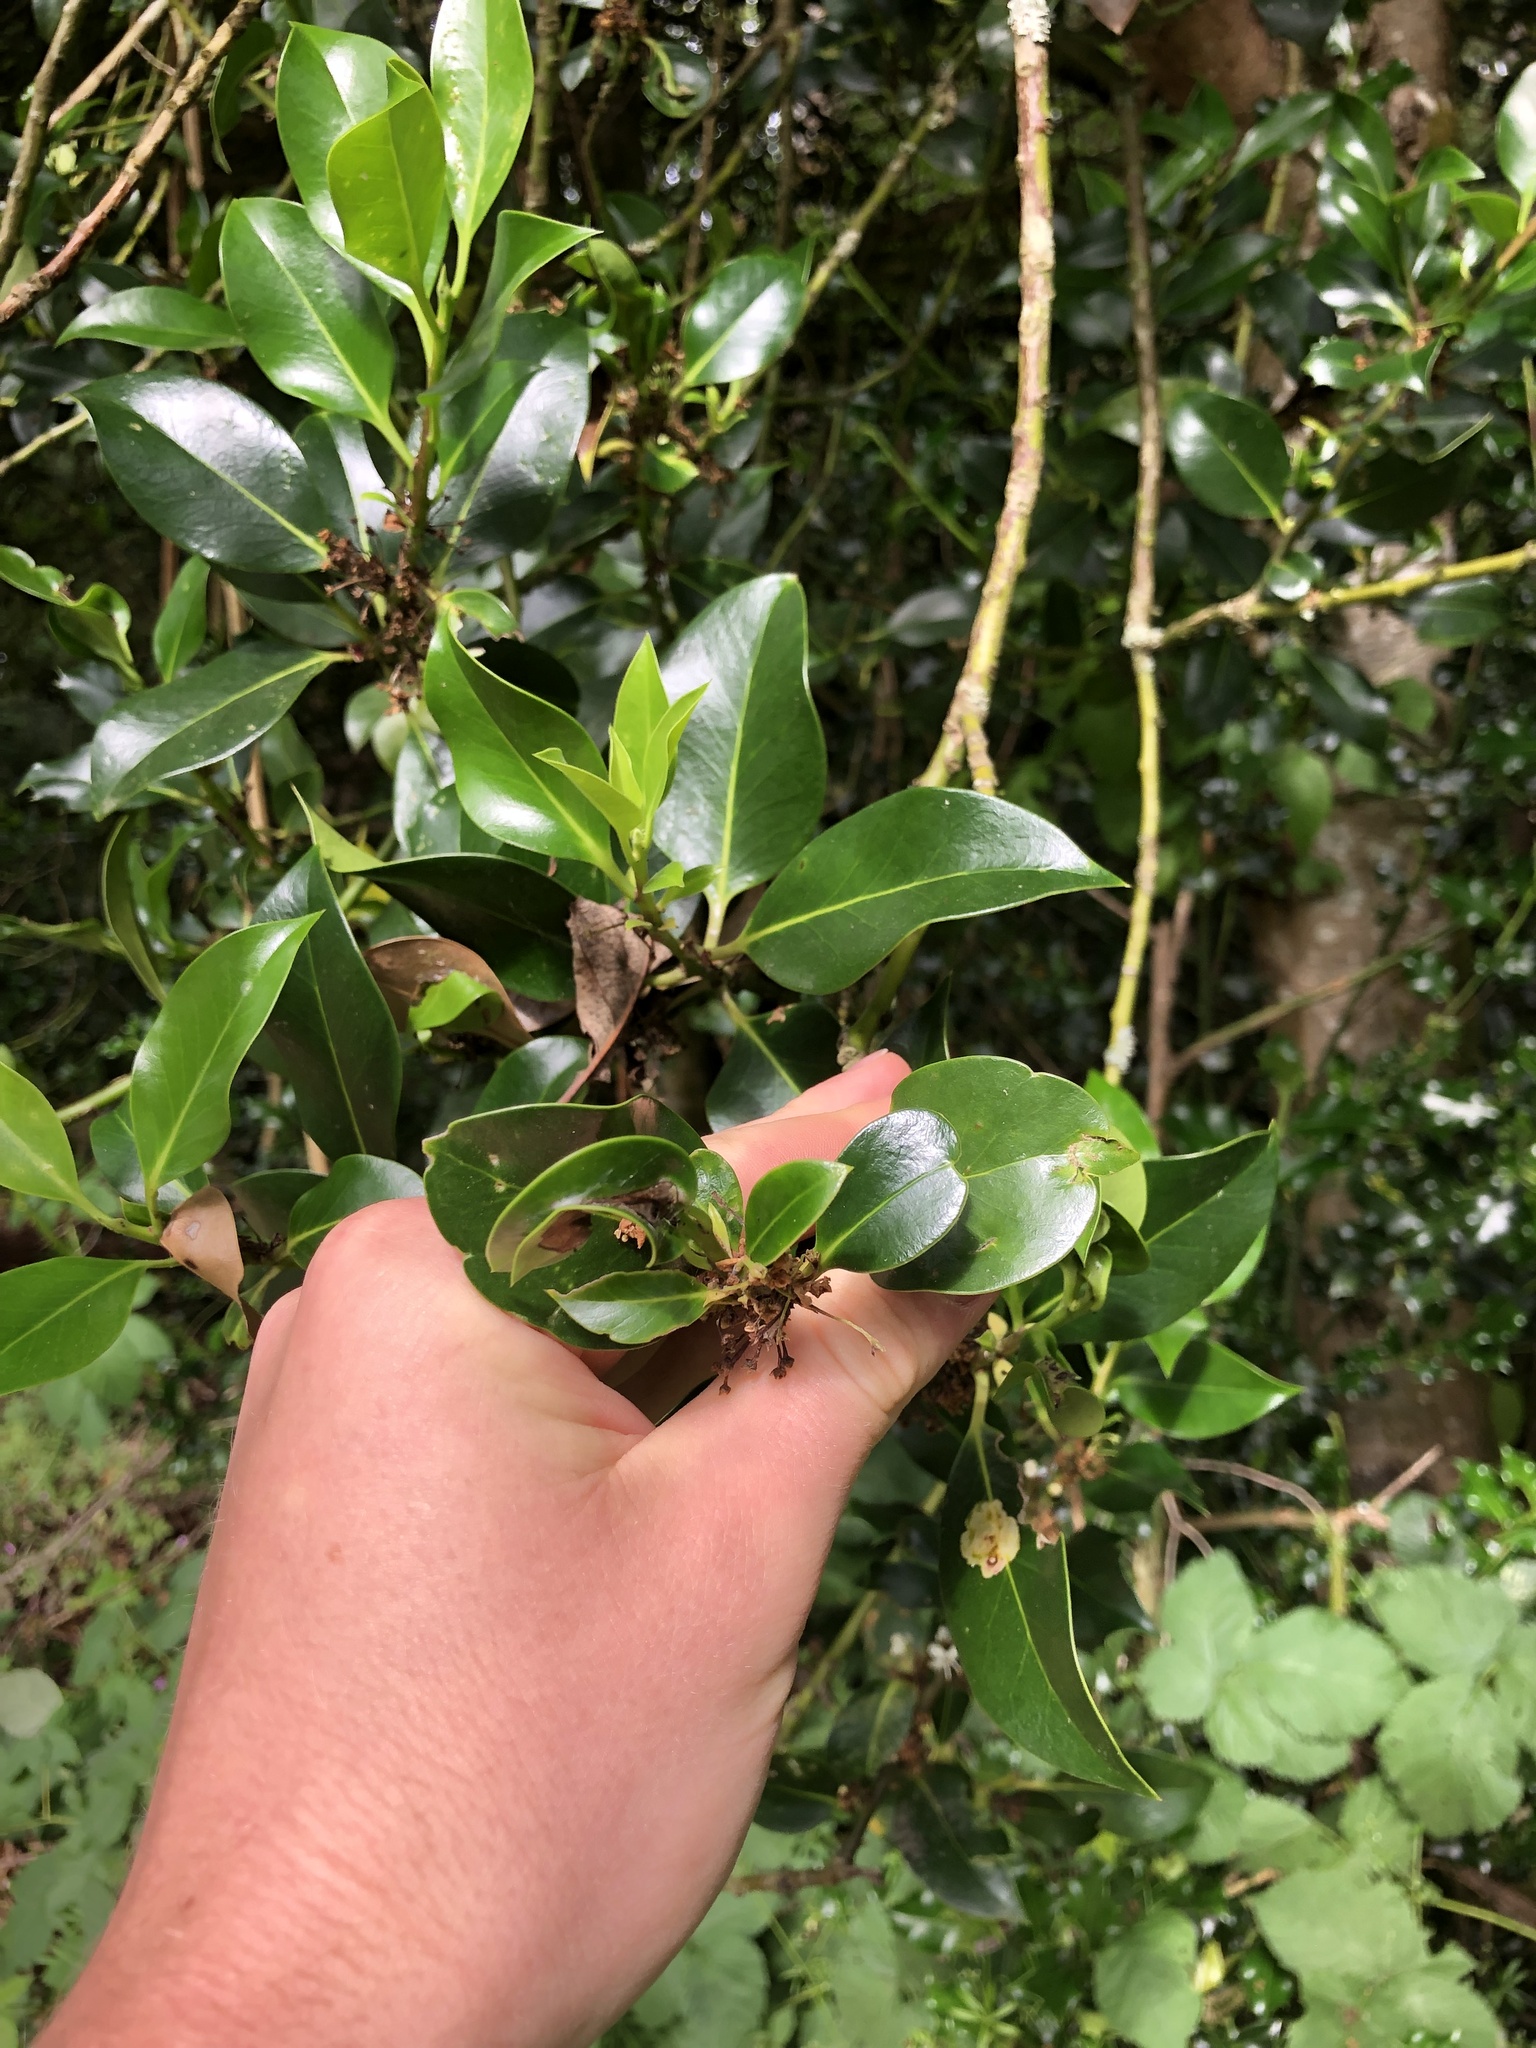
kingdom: Plantae
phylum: Tracheophyta
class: Magnoliopsida
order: Aquifoliales
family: Aquifoliaceae
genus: Ilex
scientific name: Ilex aquifolium
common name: English holly
